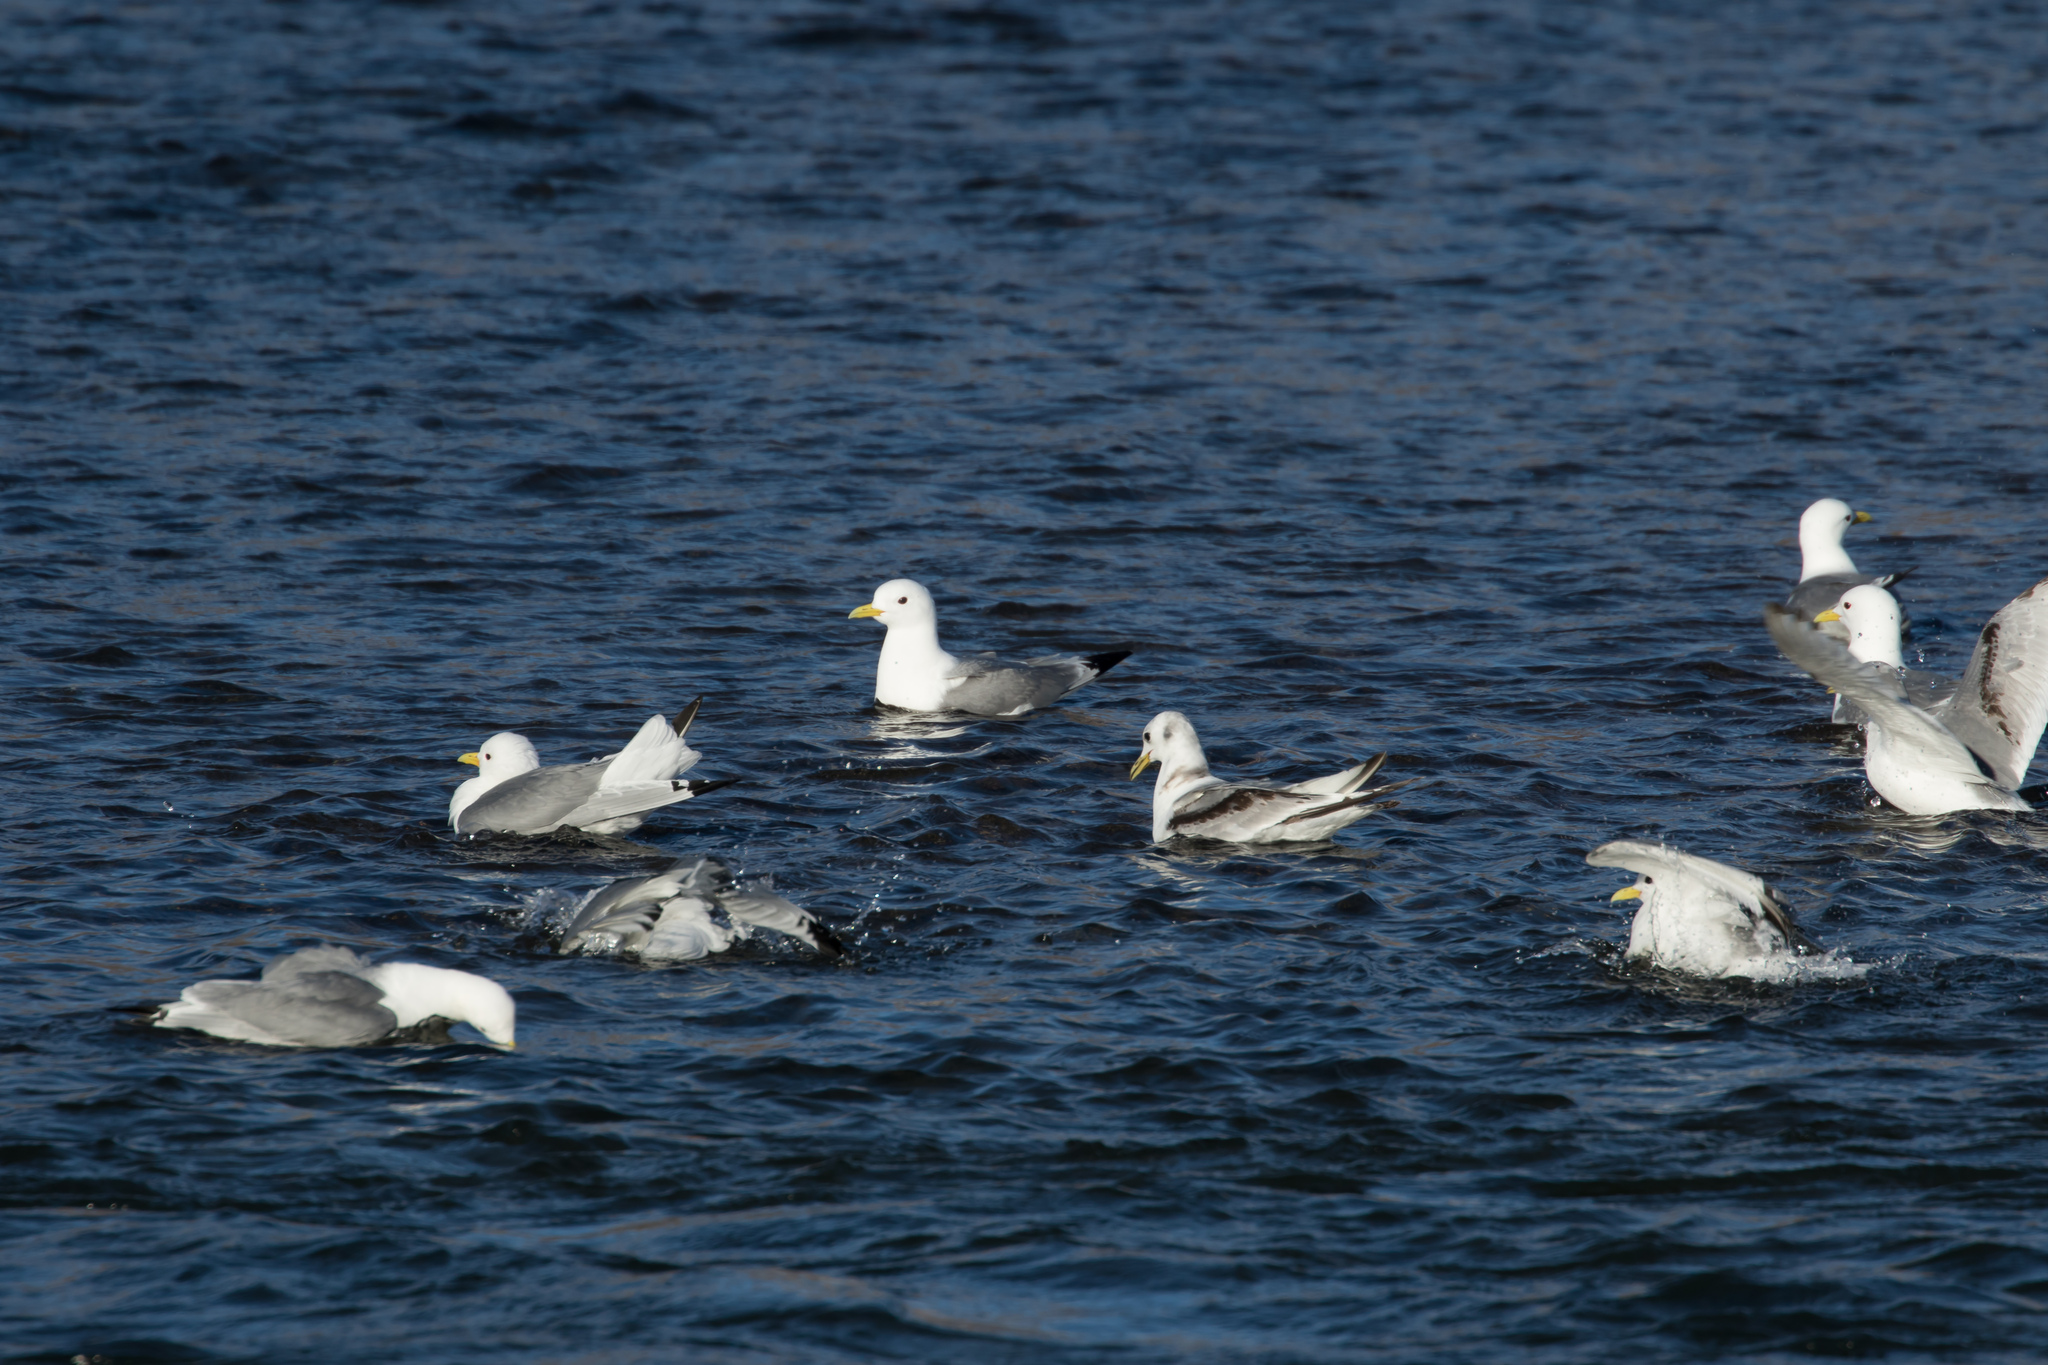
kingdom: Animalia
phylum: Chordata
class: Aves
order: Charadriiformes
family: Laridae
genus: Rissa
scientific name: Rissa tridactyla
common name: Black-legged kittiwake
